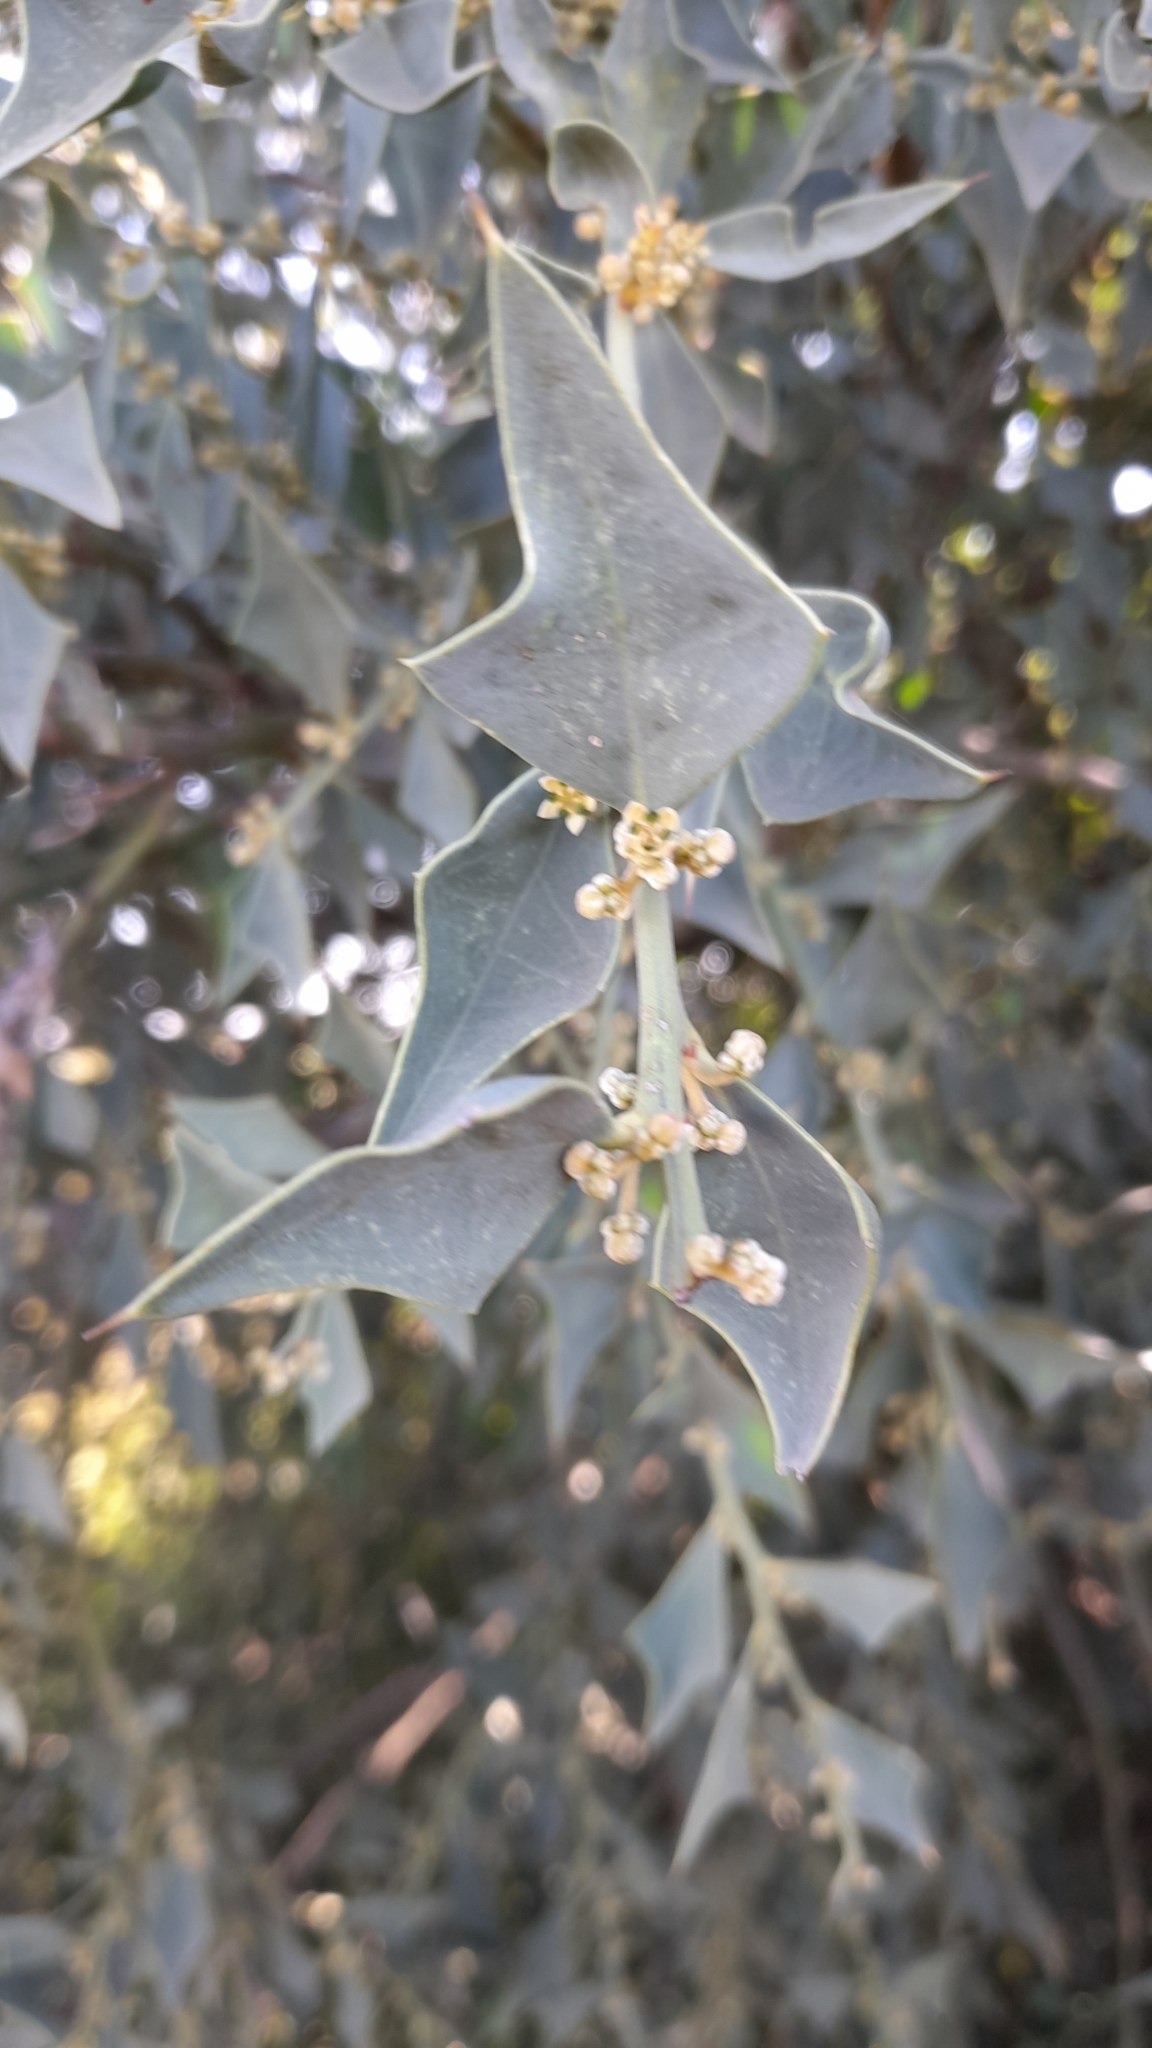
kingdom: Plantae
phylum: Tracheophyta
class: Magnoliopsida
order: Santalales
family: Cervantesiaceae
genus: Jodina
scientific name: Jodina rhombifolia
